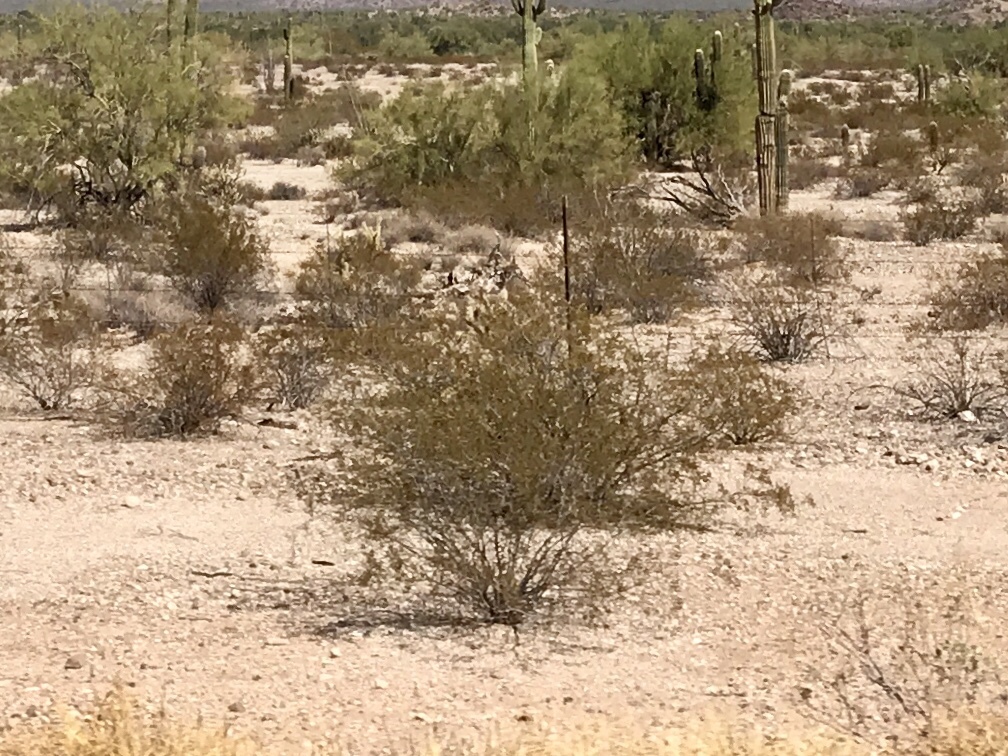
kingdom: Plantae
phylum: Tracheophyta
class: Magnoliopsida
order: Zygophyllales
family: Zygophyllaceae
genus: Larrea
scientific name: Larrea tridentata
